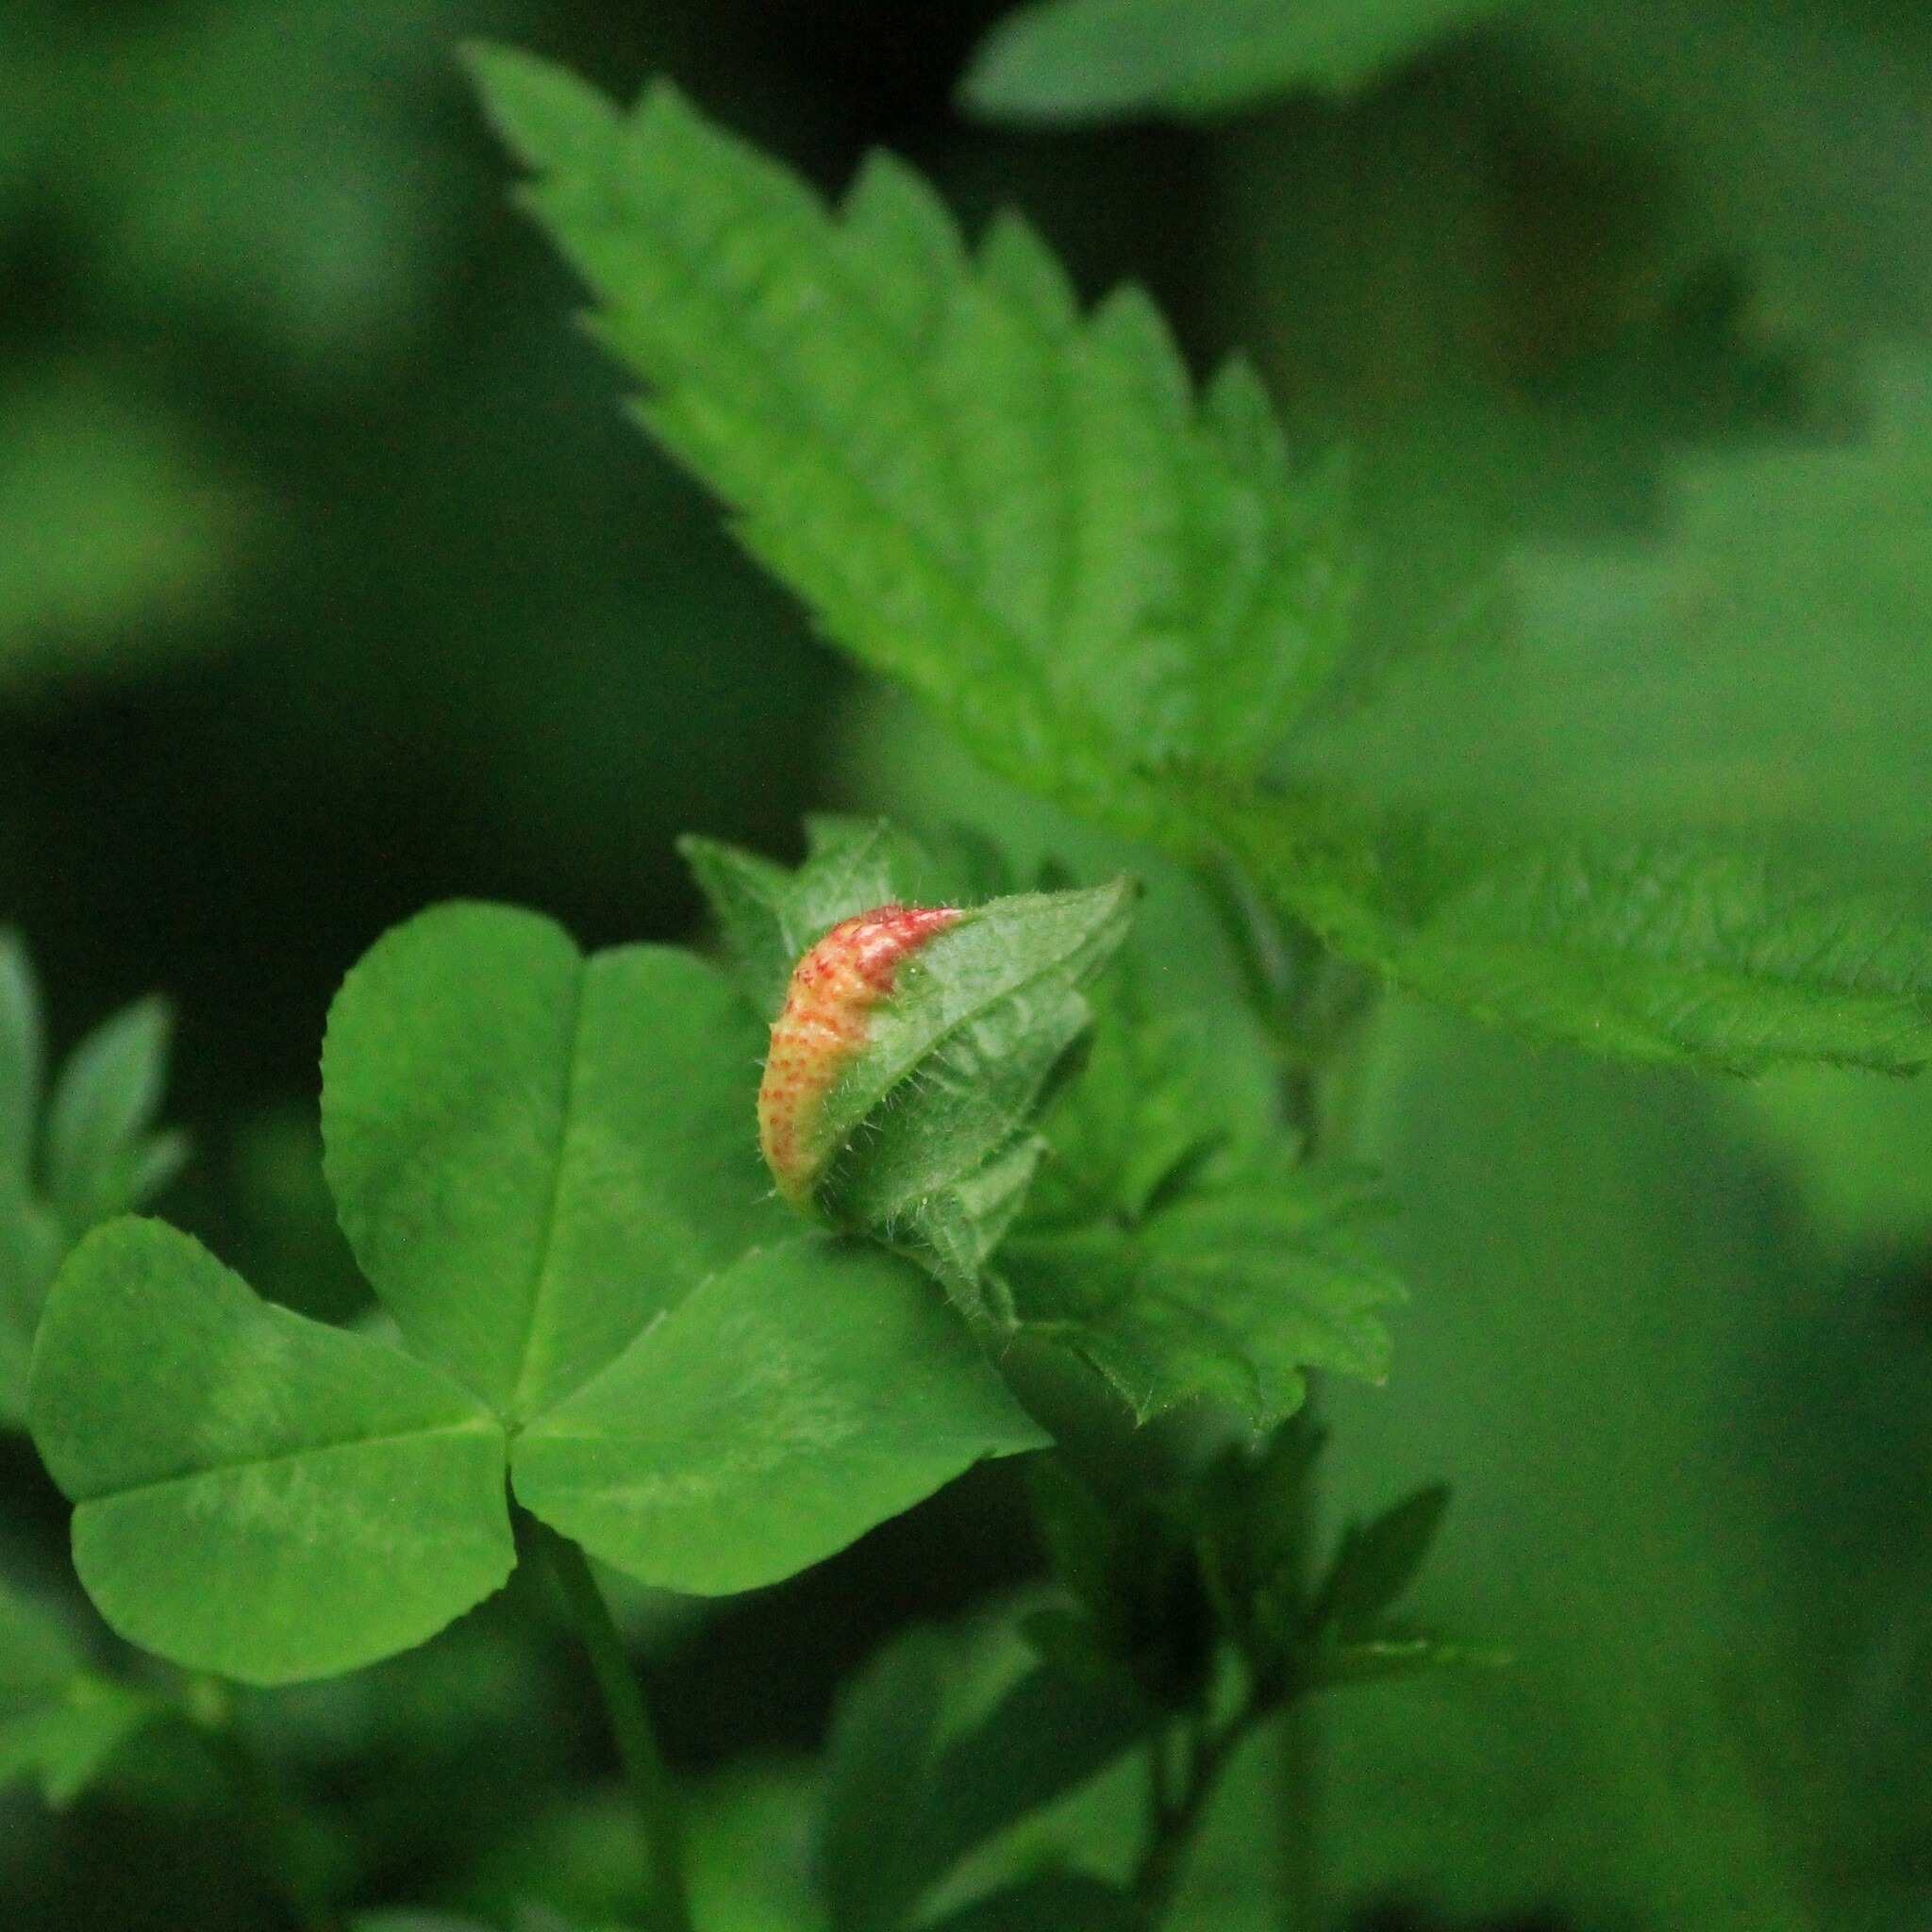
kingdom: Fungi
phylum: Basidiomycota
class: Pucciniomycetes
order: Pucciniales
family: Pucciniaceae
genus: Puccinia
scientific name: Puccinia urticata
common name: Nettle clustercup rust fungus
